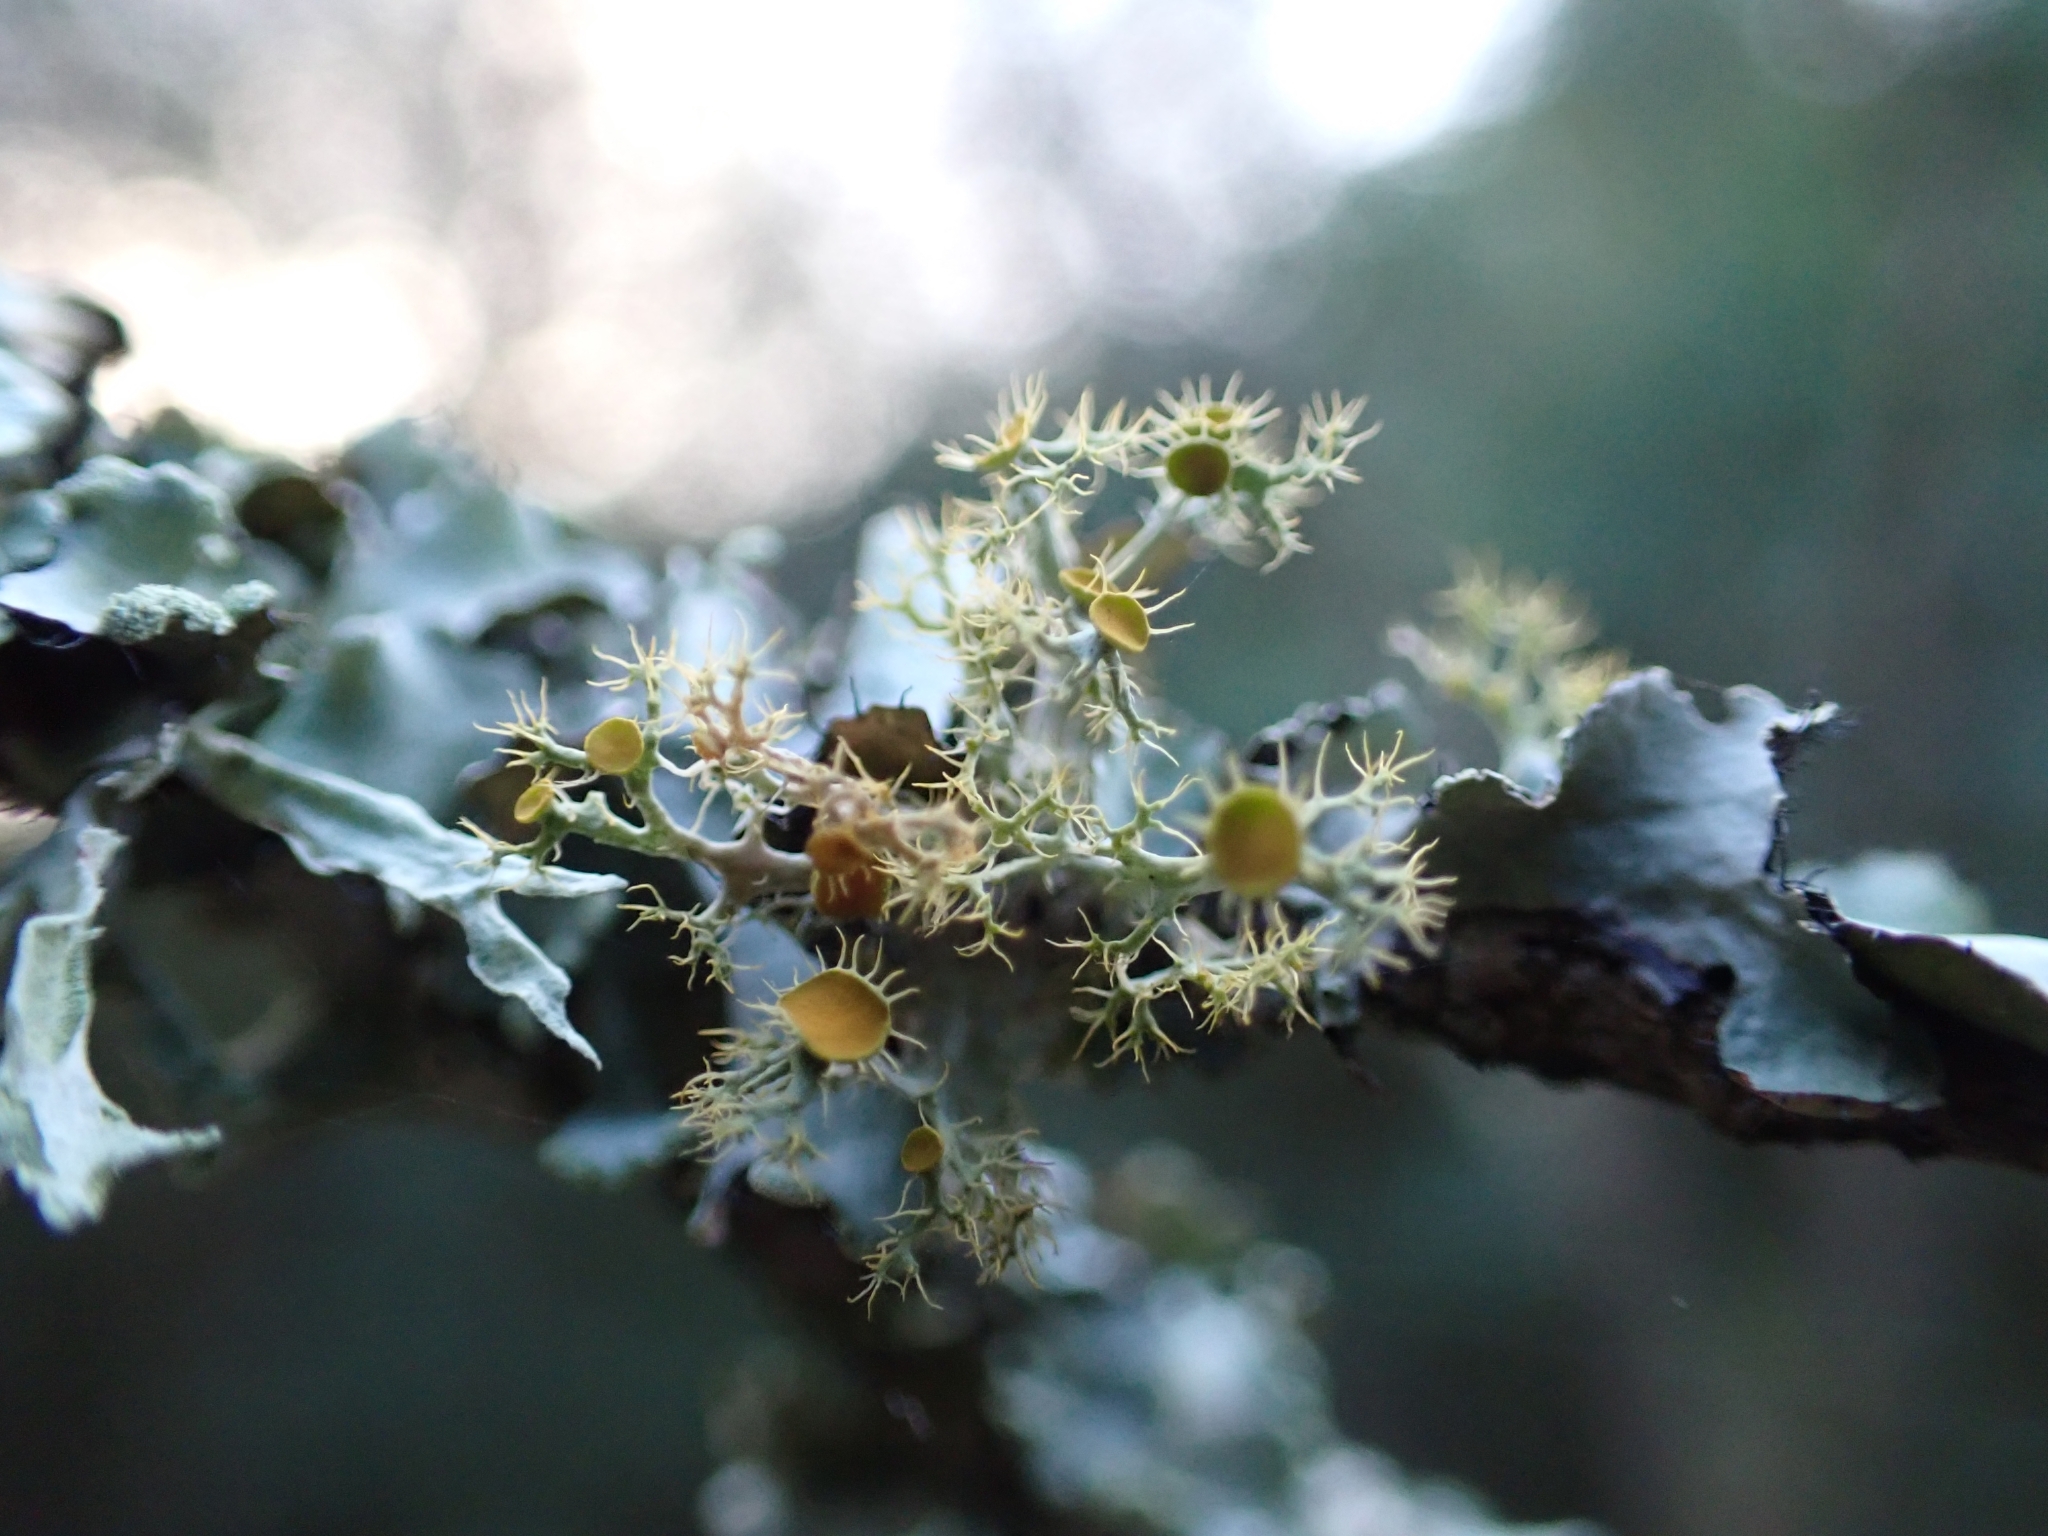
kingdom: Fungi
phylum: Ascomycota
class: Lecanoromycetes
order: Teloschistales
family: Teloschistaceae
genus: Niorma
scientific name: Niorma chrysophthalma
